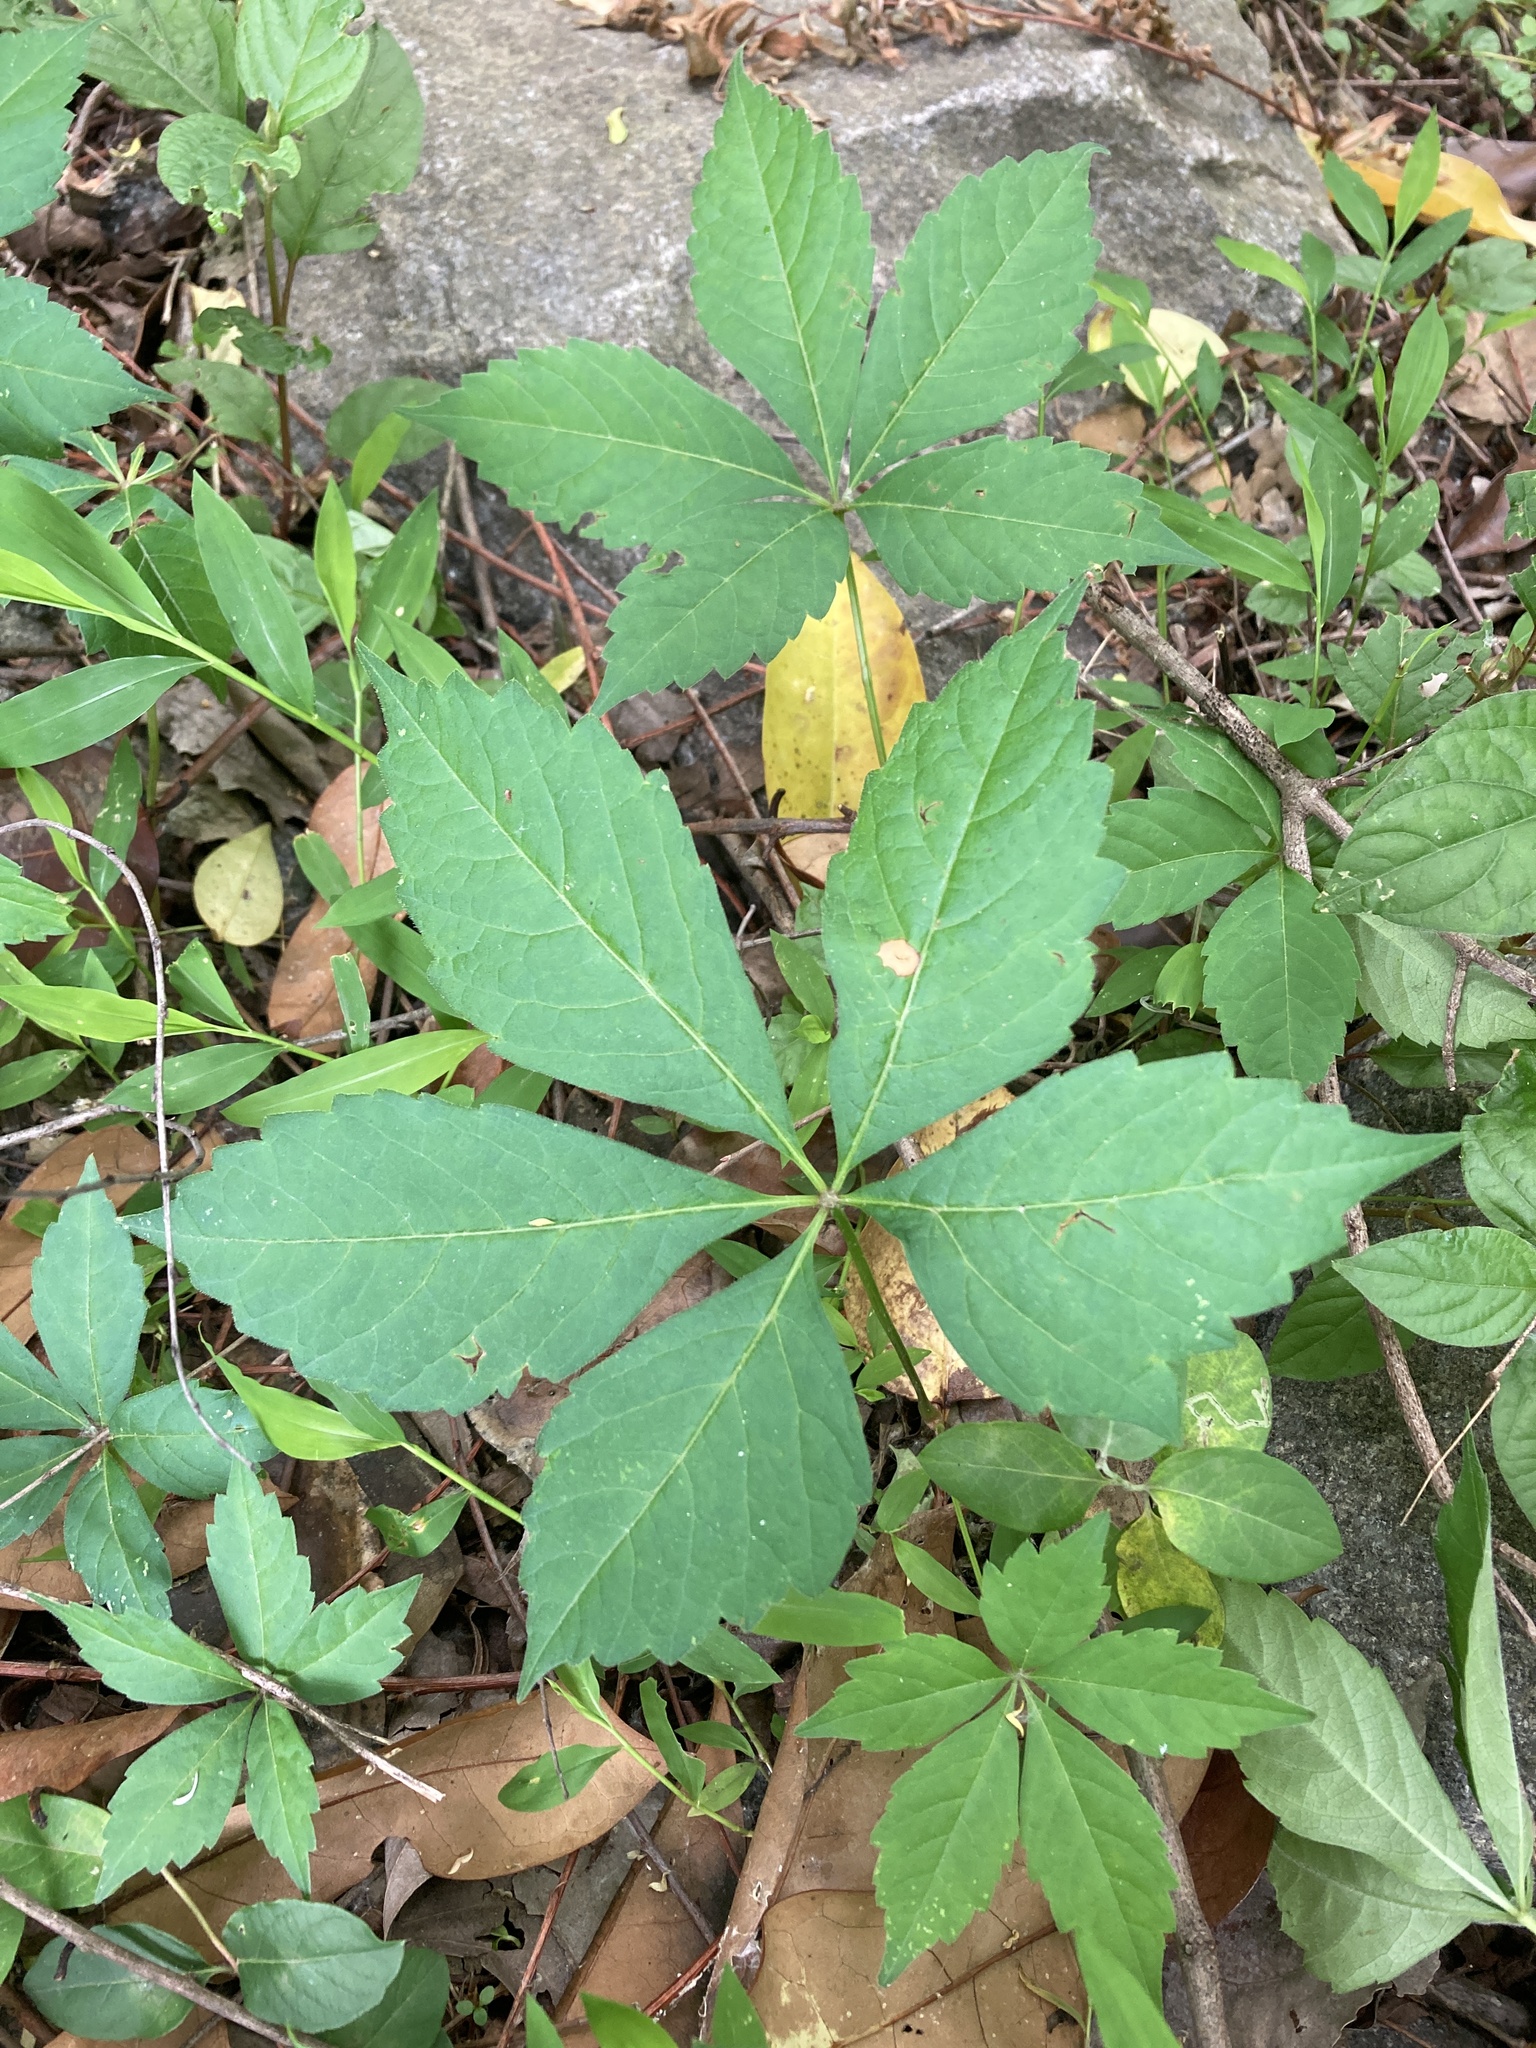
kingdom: Plantae
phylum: Tracheophyta
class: Magnoliopsida
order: Vitales
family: Vitaceae
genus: Parthenocissus
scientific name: Parthenocissus quinquefolia
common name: Virginia-creeper
